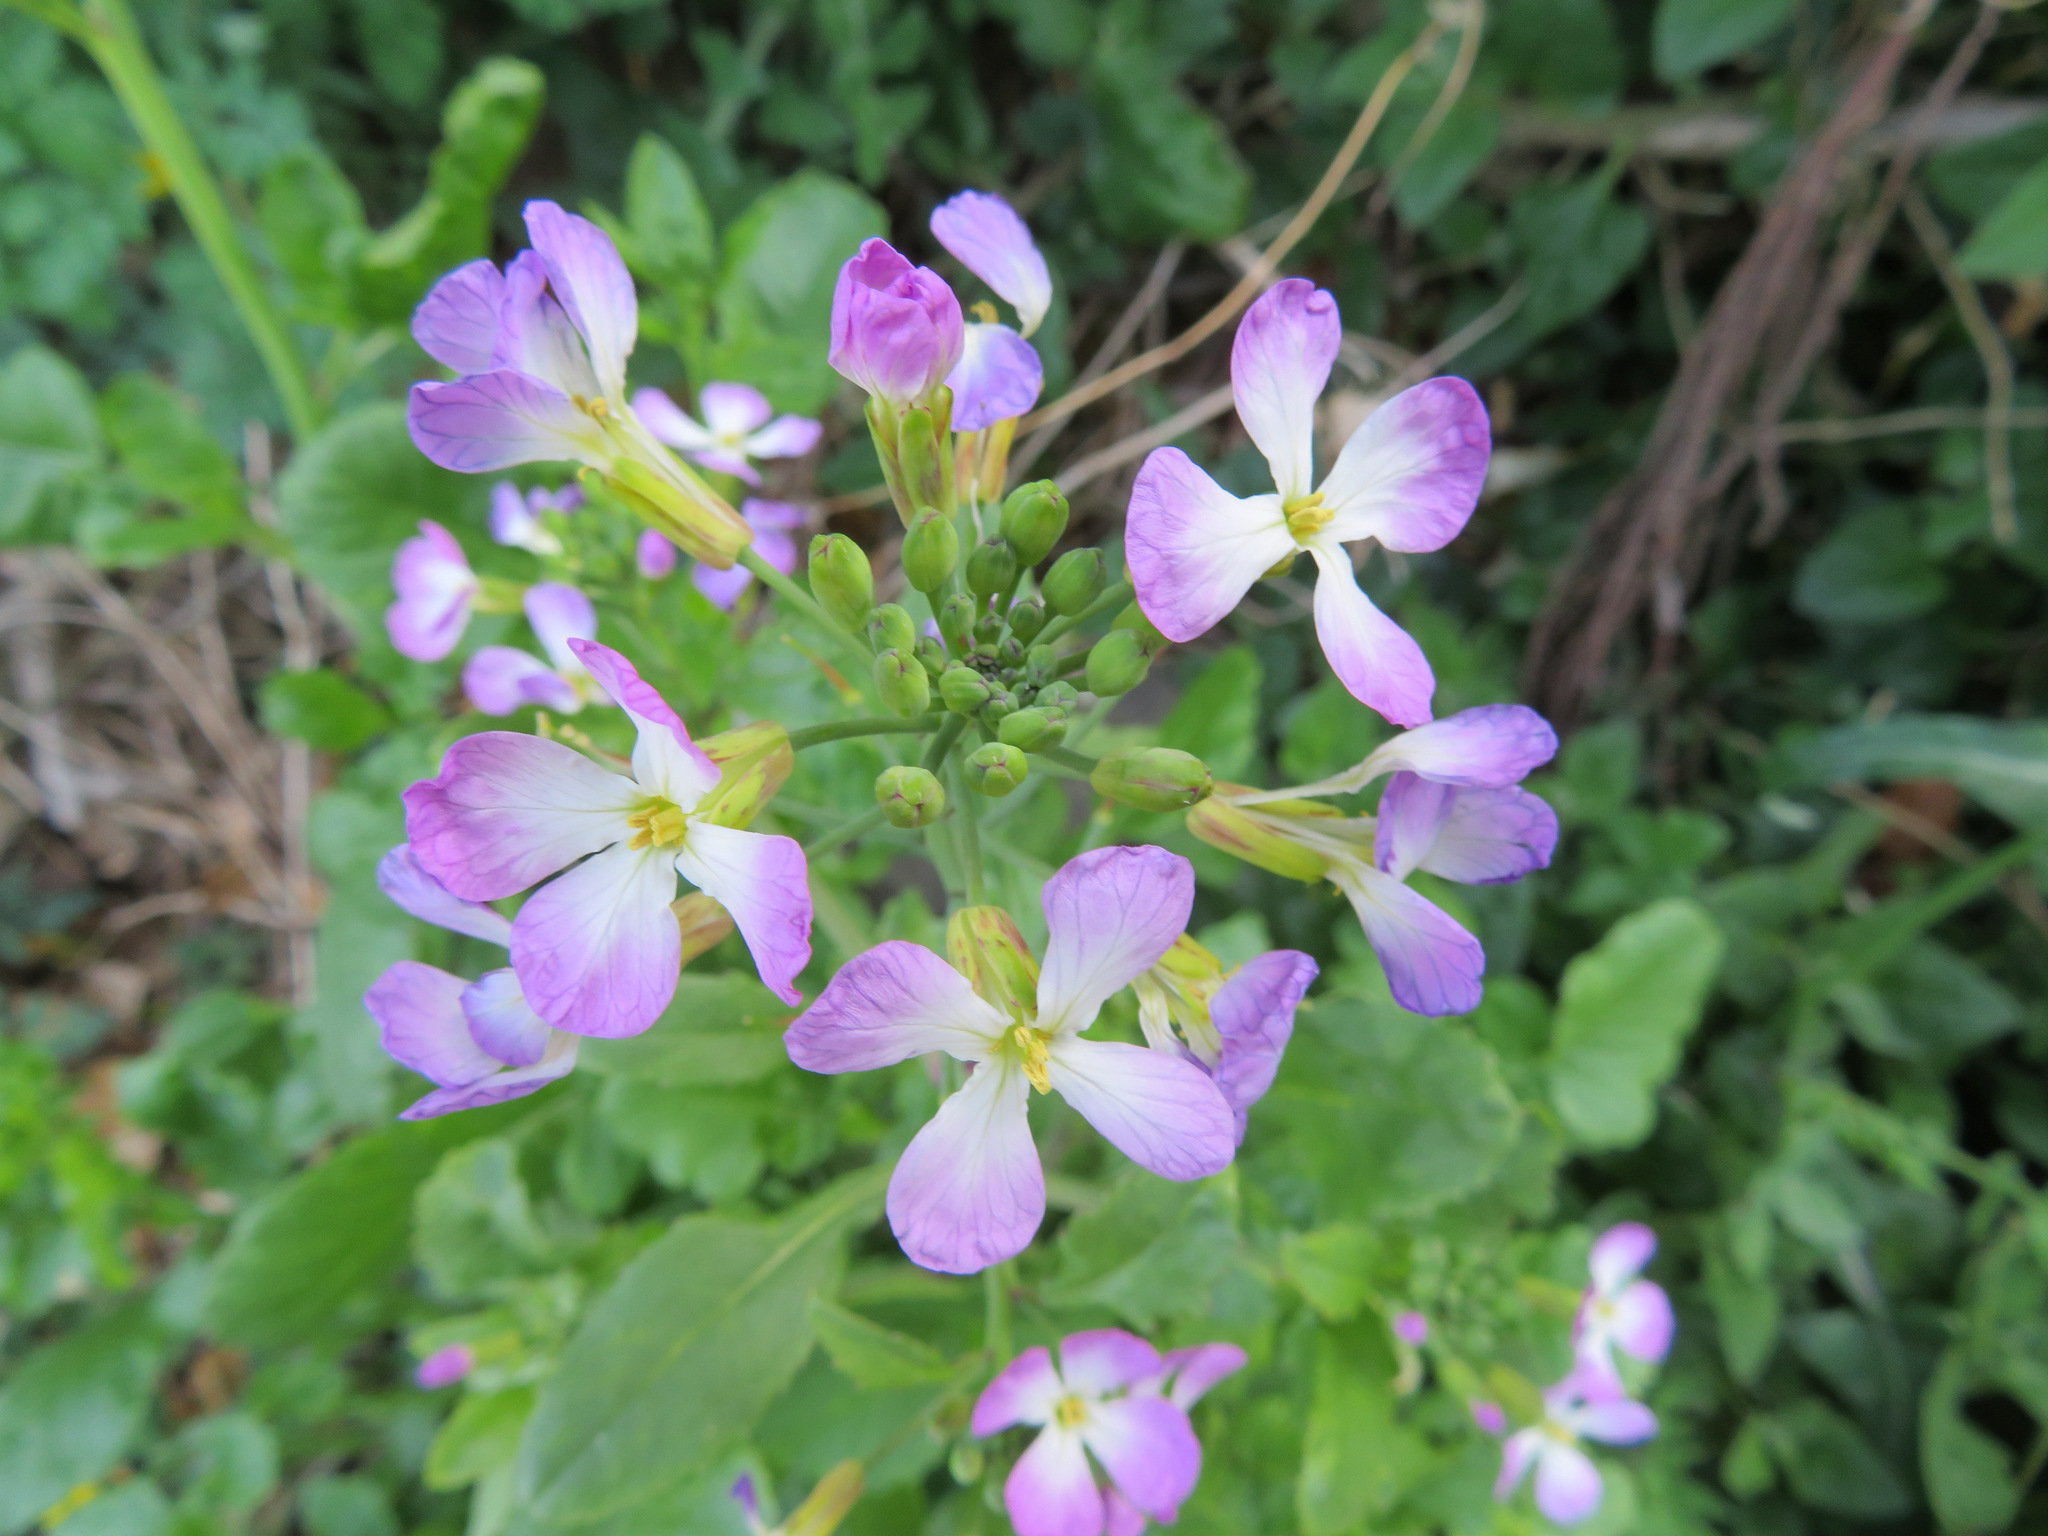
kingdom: Plantae
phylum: Tracheophyta
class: Magnoliopsida
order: Brassicales
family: Brassicaceae
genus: Raphanus
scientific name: Raphanus sativus
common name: Cultivated radish
